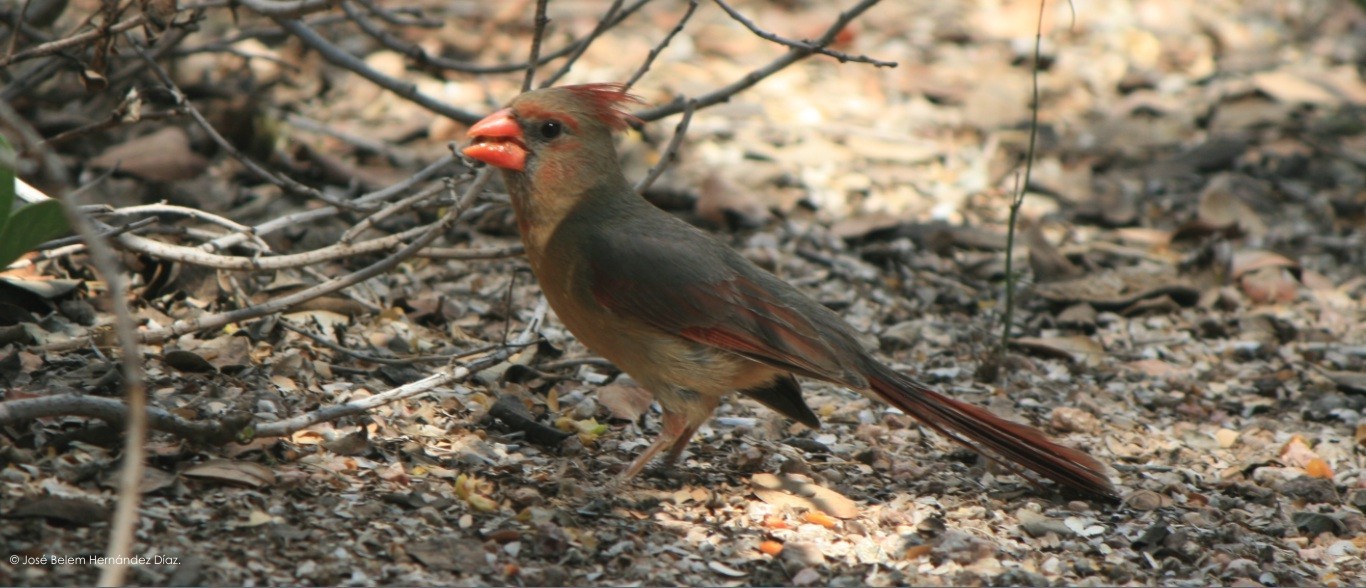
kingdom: Animalia
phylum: Chordata
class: Aves
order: Passeriformes
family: Cardinalidae
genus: Cardinalis
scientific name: Cardinalis cardinalis
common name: Northern cardinal
